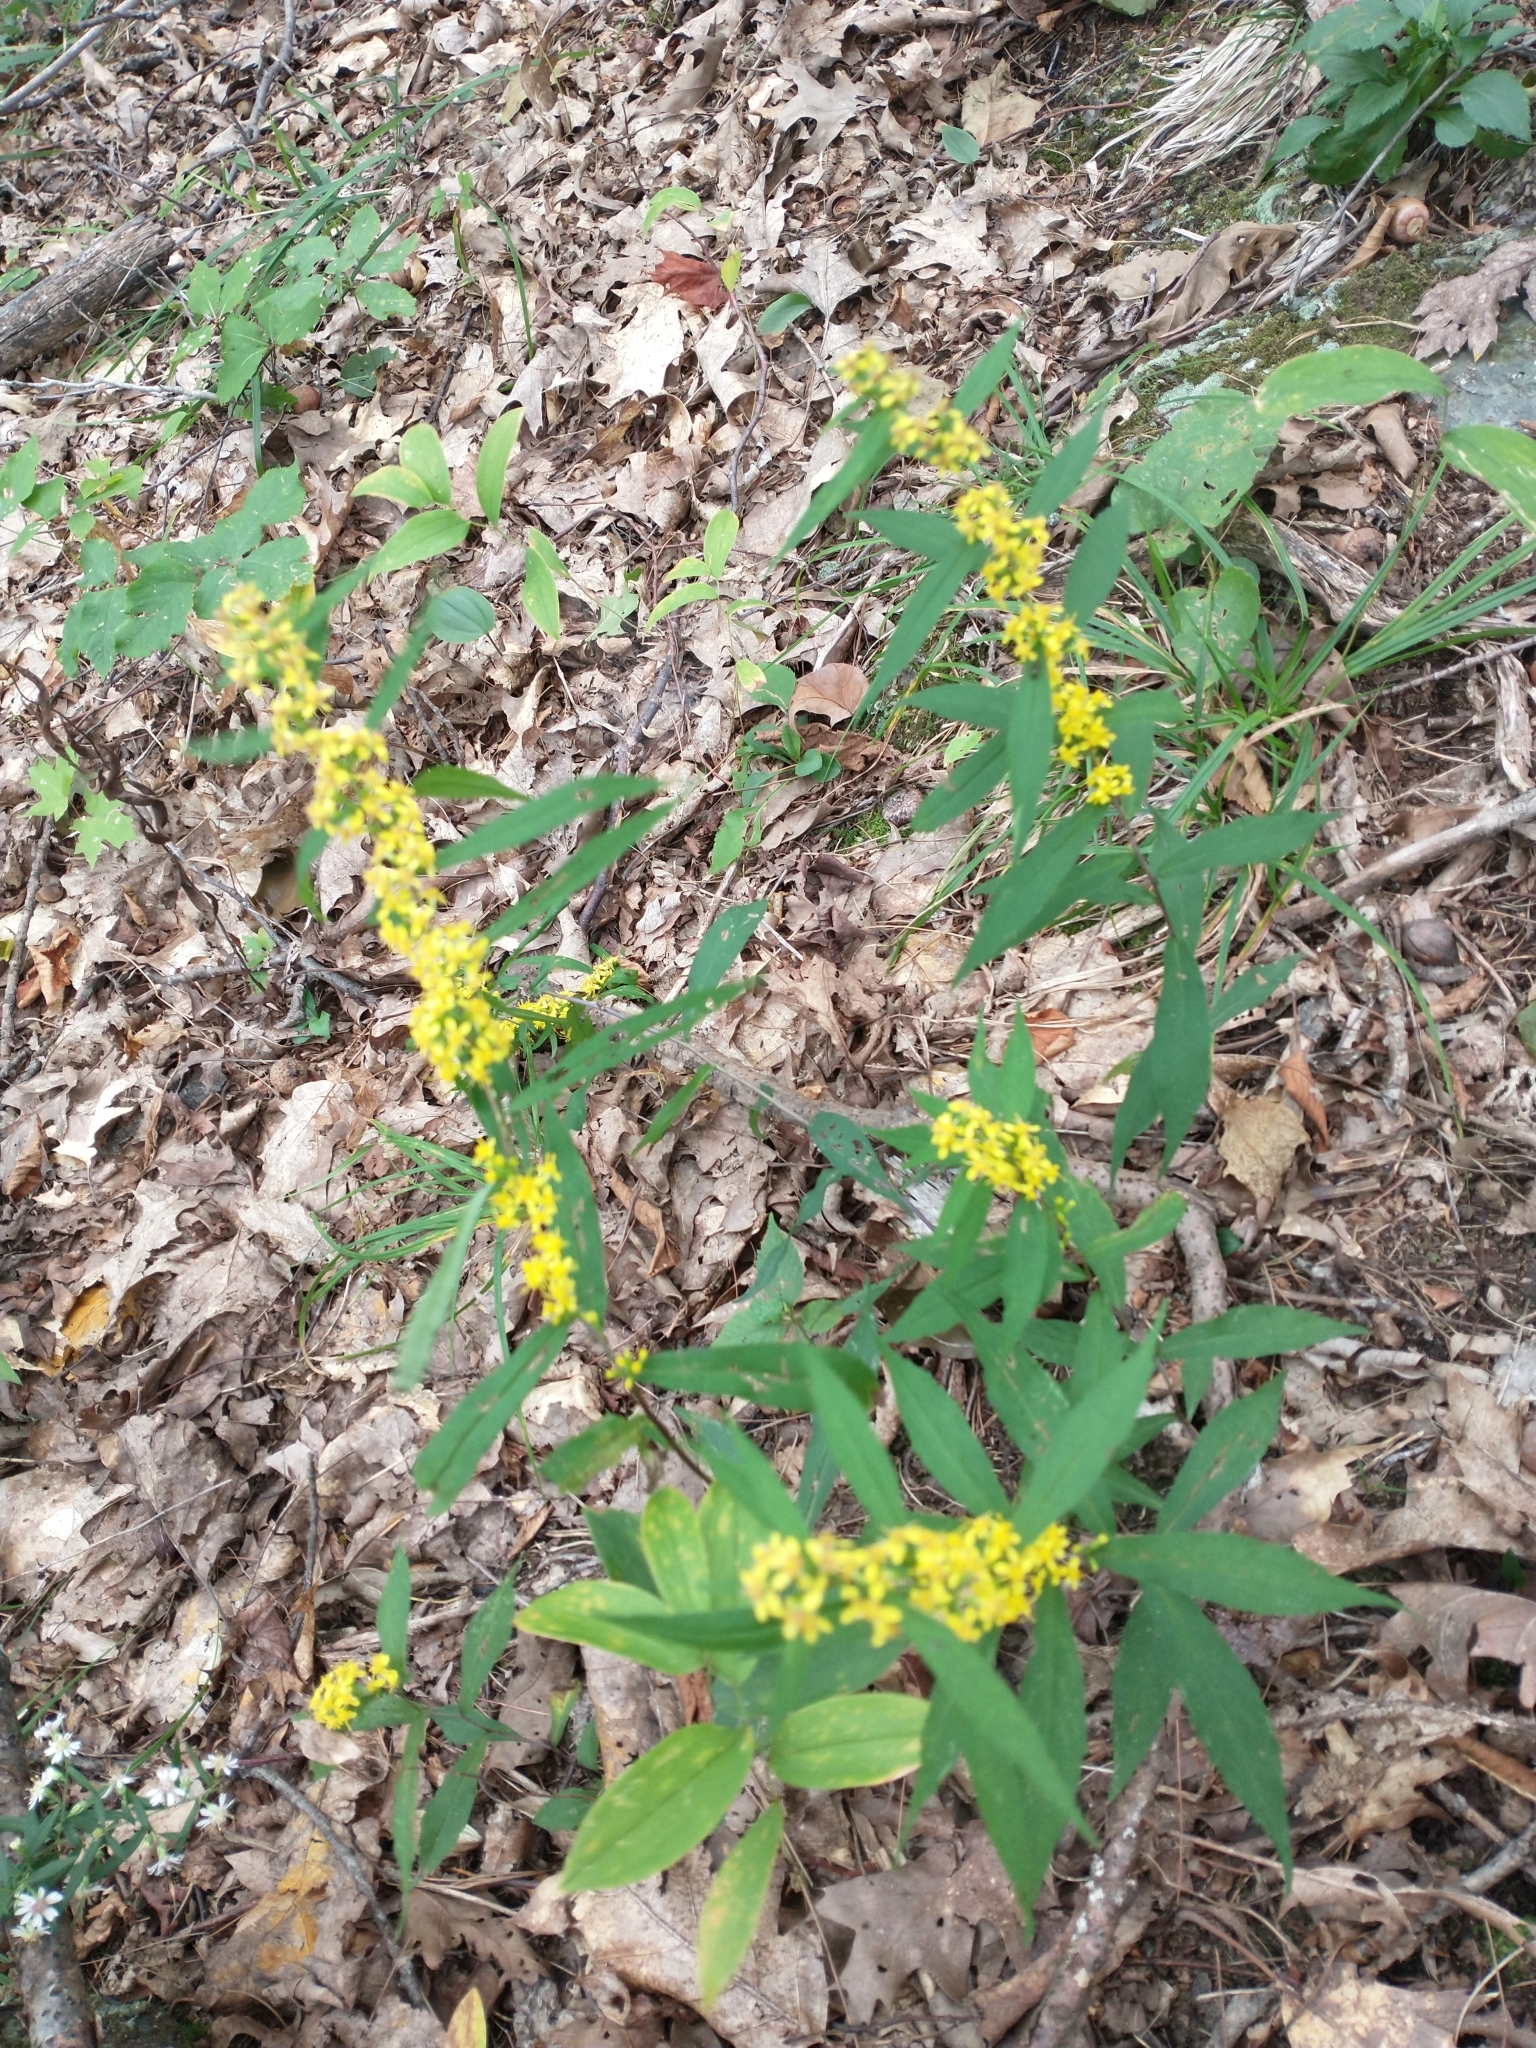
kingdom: Plantae
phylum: Tracheophyta
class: Magnoliopsida
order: Asterales
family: Asteraceae
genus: Solidago
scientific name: Solidago caesia
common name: Woodland goldenrod
